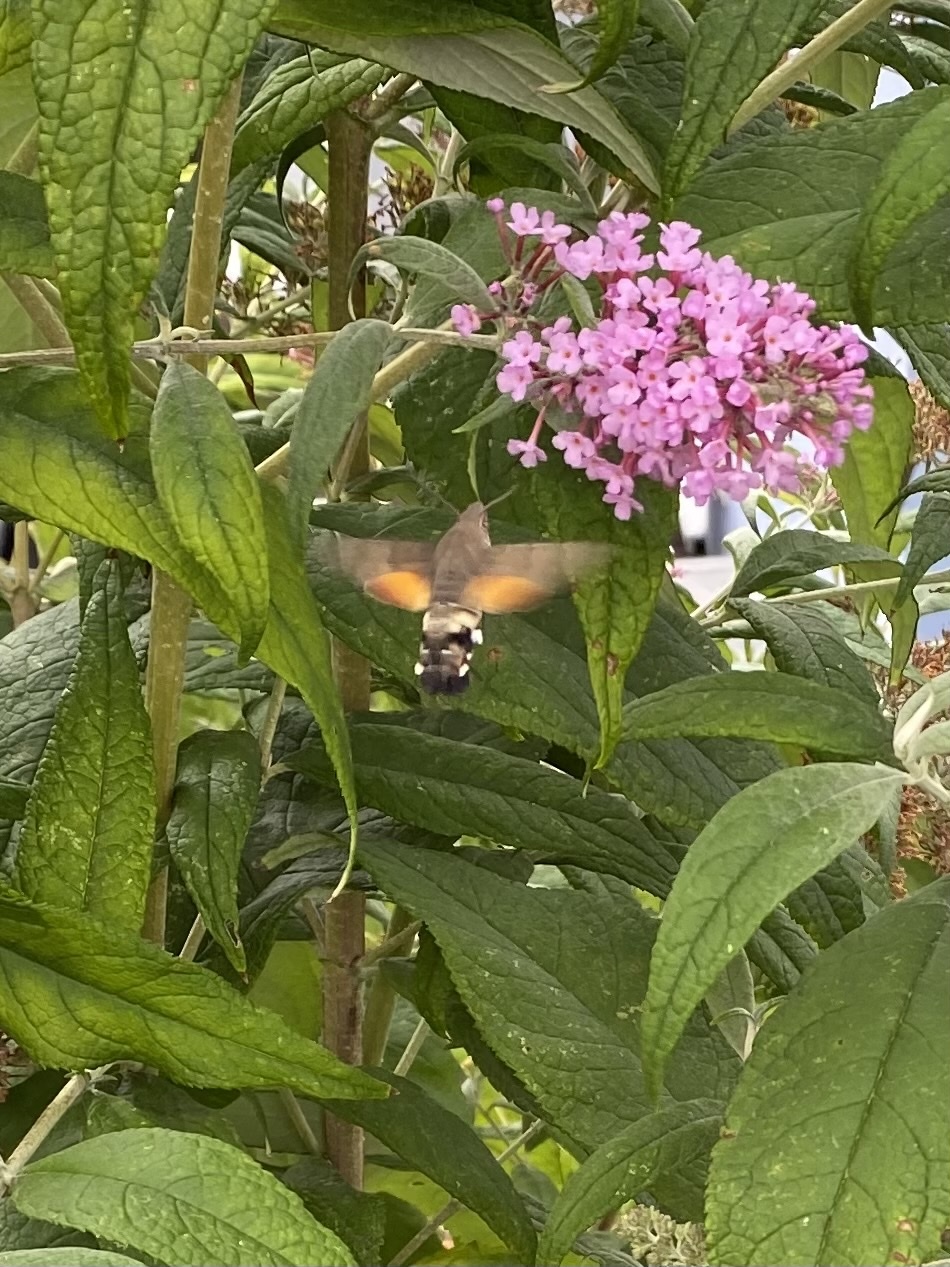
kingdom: Animalia
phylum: Arthropoda
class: Insecta
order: Lepidoptera
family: Sphingidae
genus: Macroglossum
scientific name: Macroglossum stellatarum
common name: Humming-bird hawk-moth
